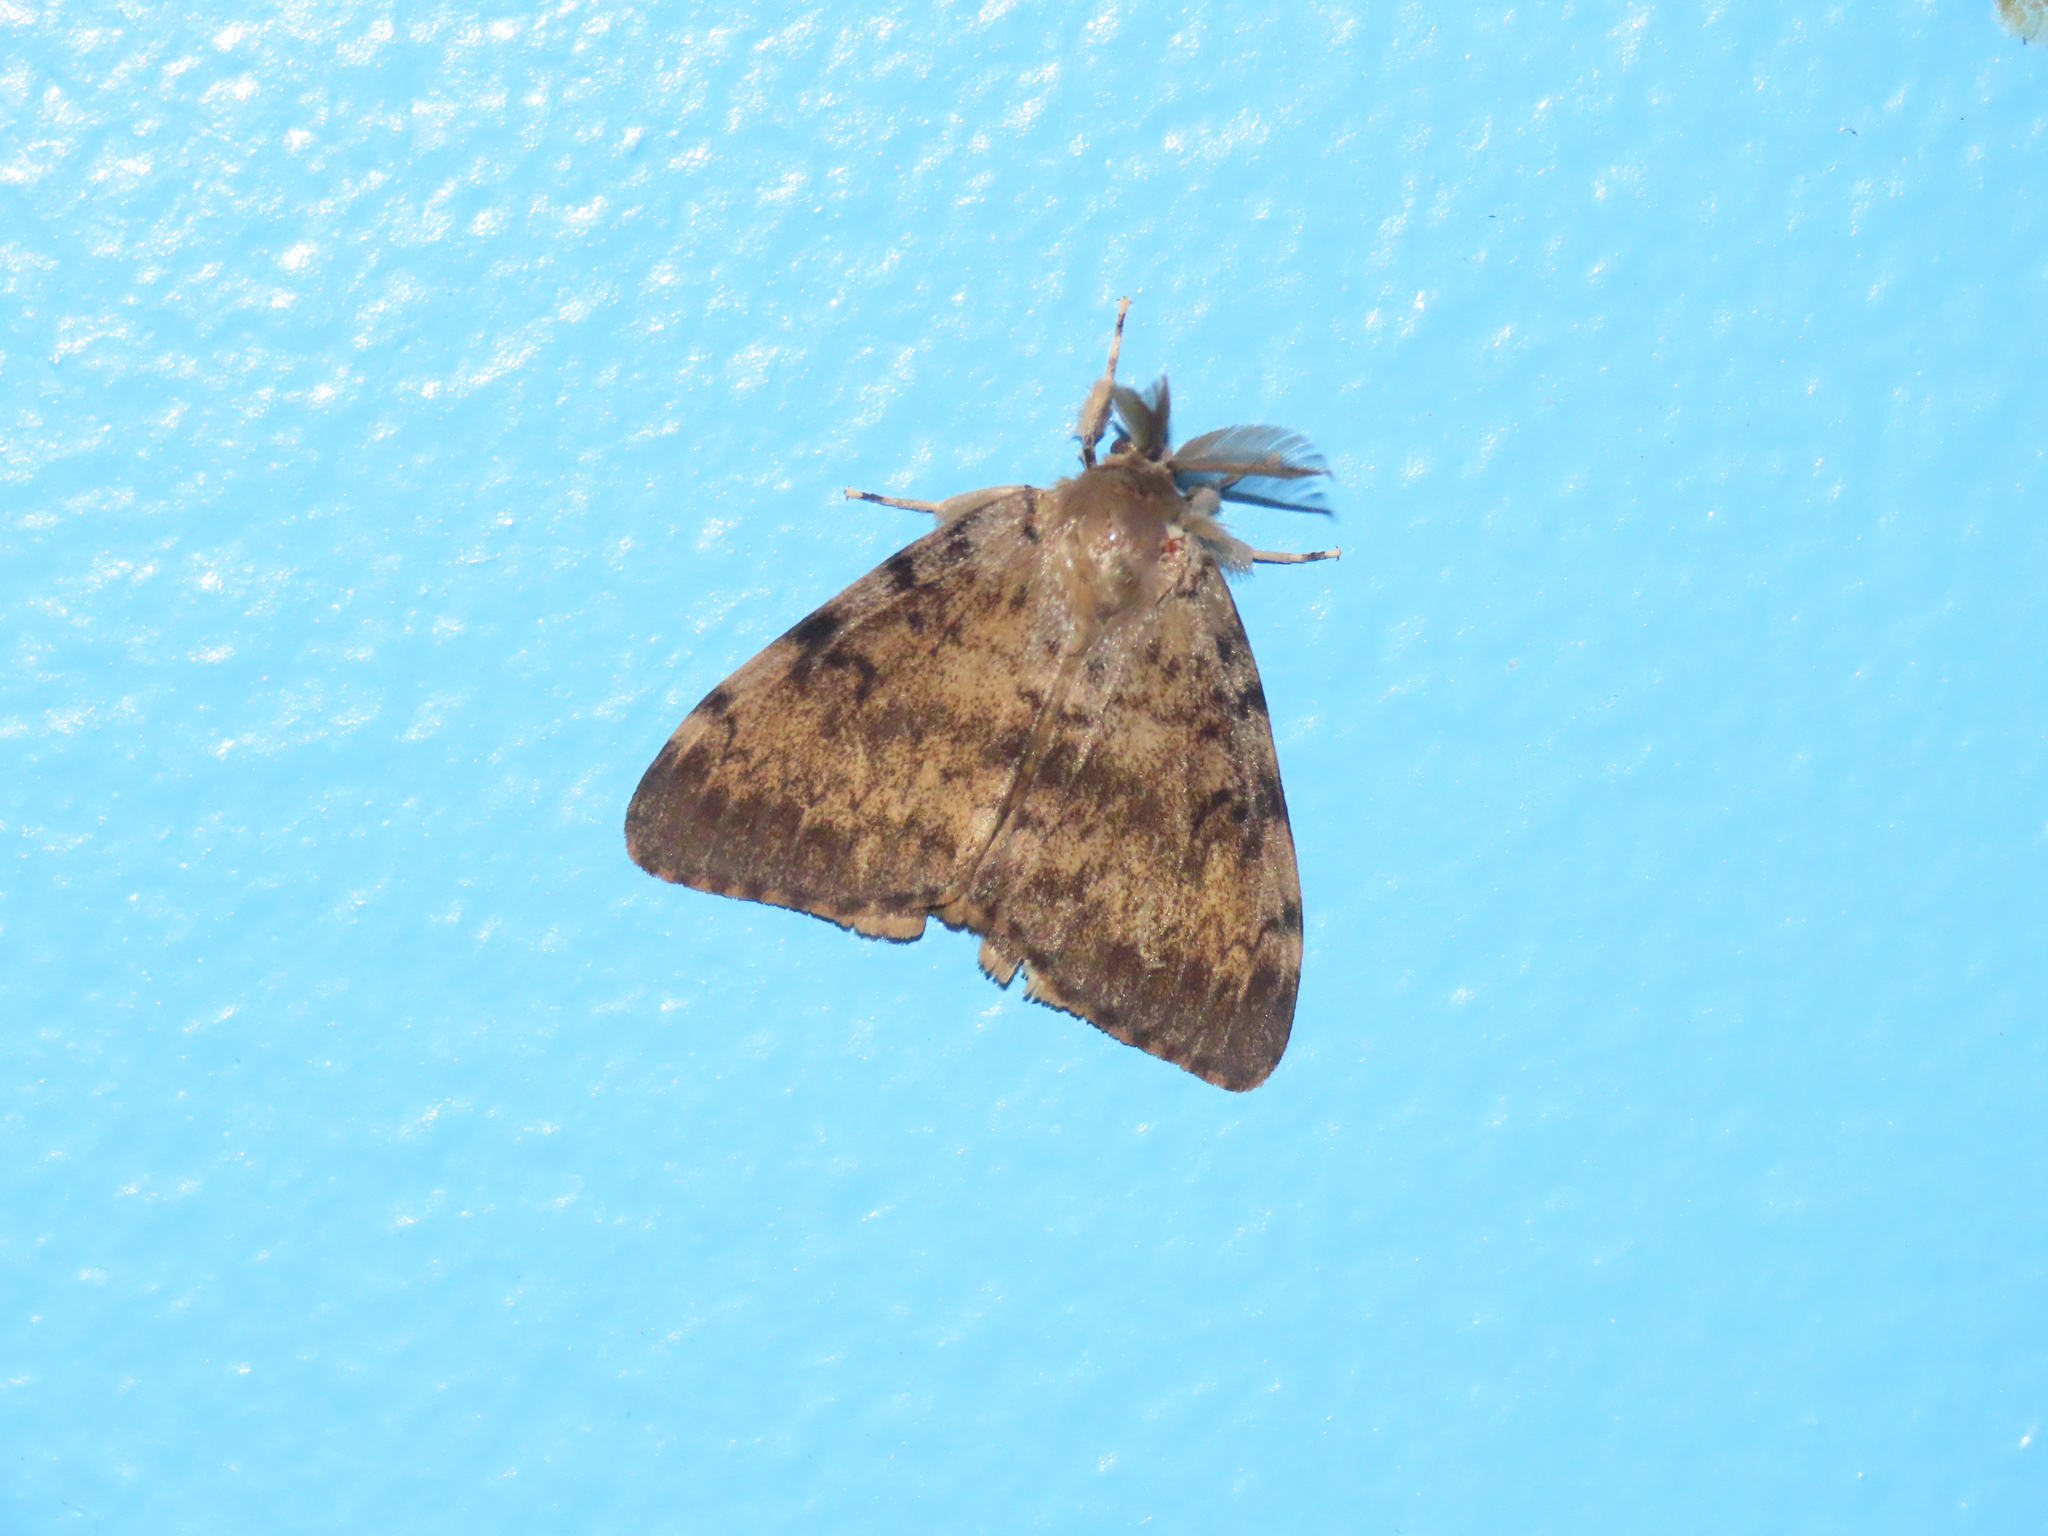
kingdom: Animalia
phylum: Arthropoda
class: Insecta
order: Lepidoptera
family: Erebidae
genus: Lymantria
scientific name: Lymantria dispar
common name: Gypsy moth
